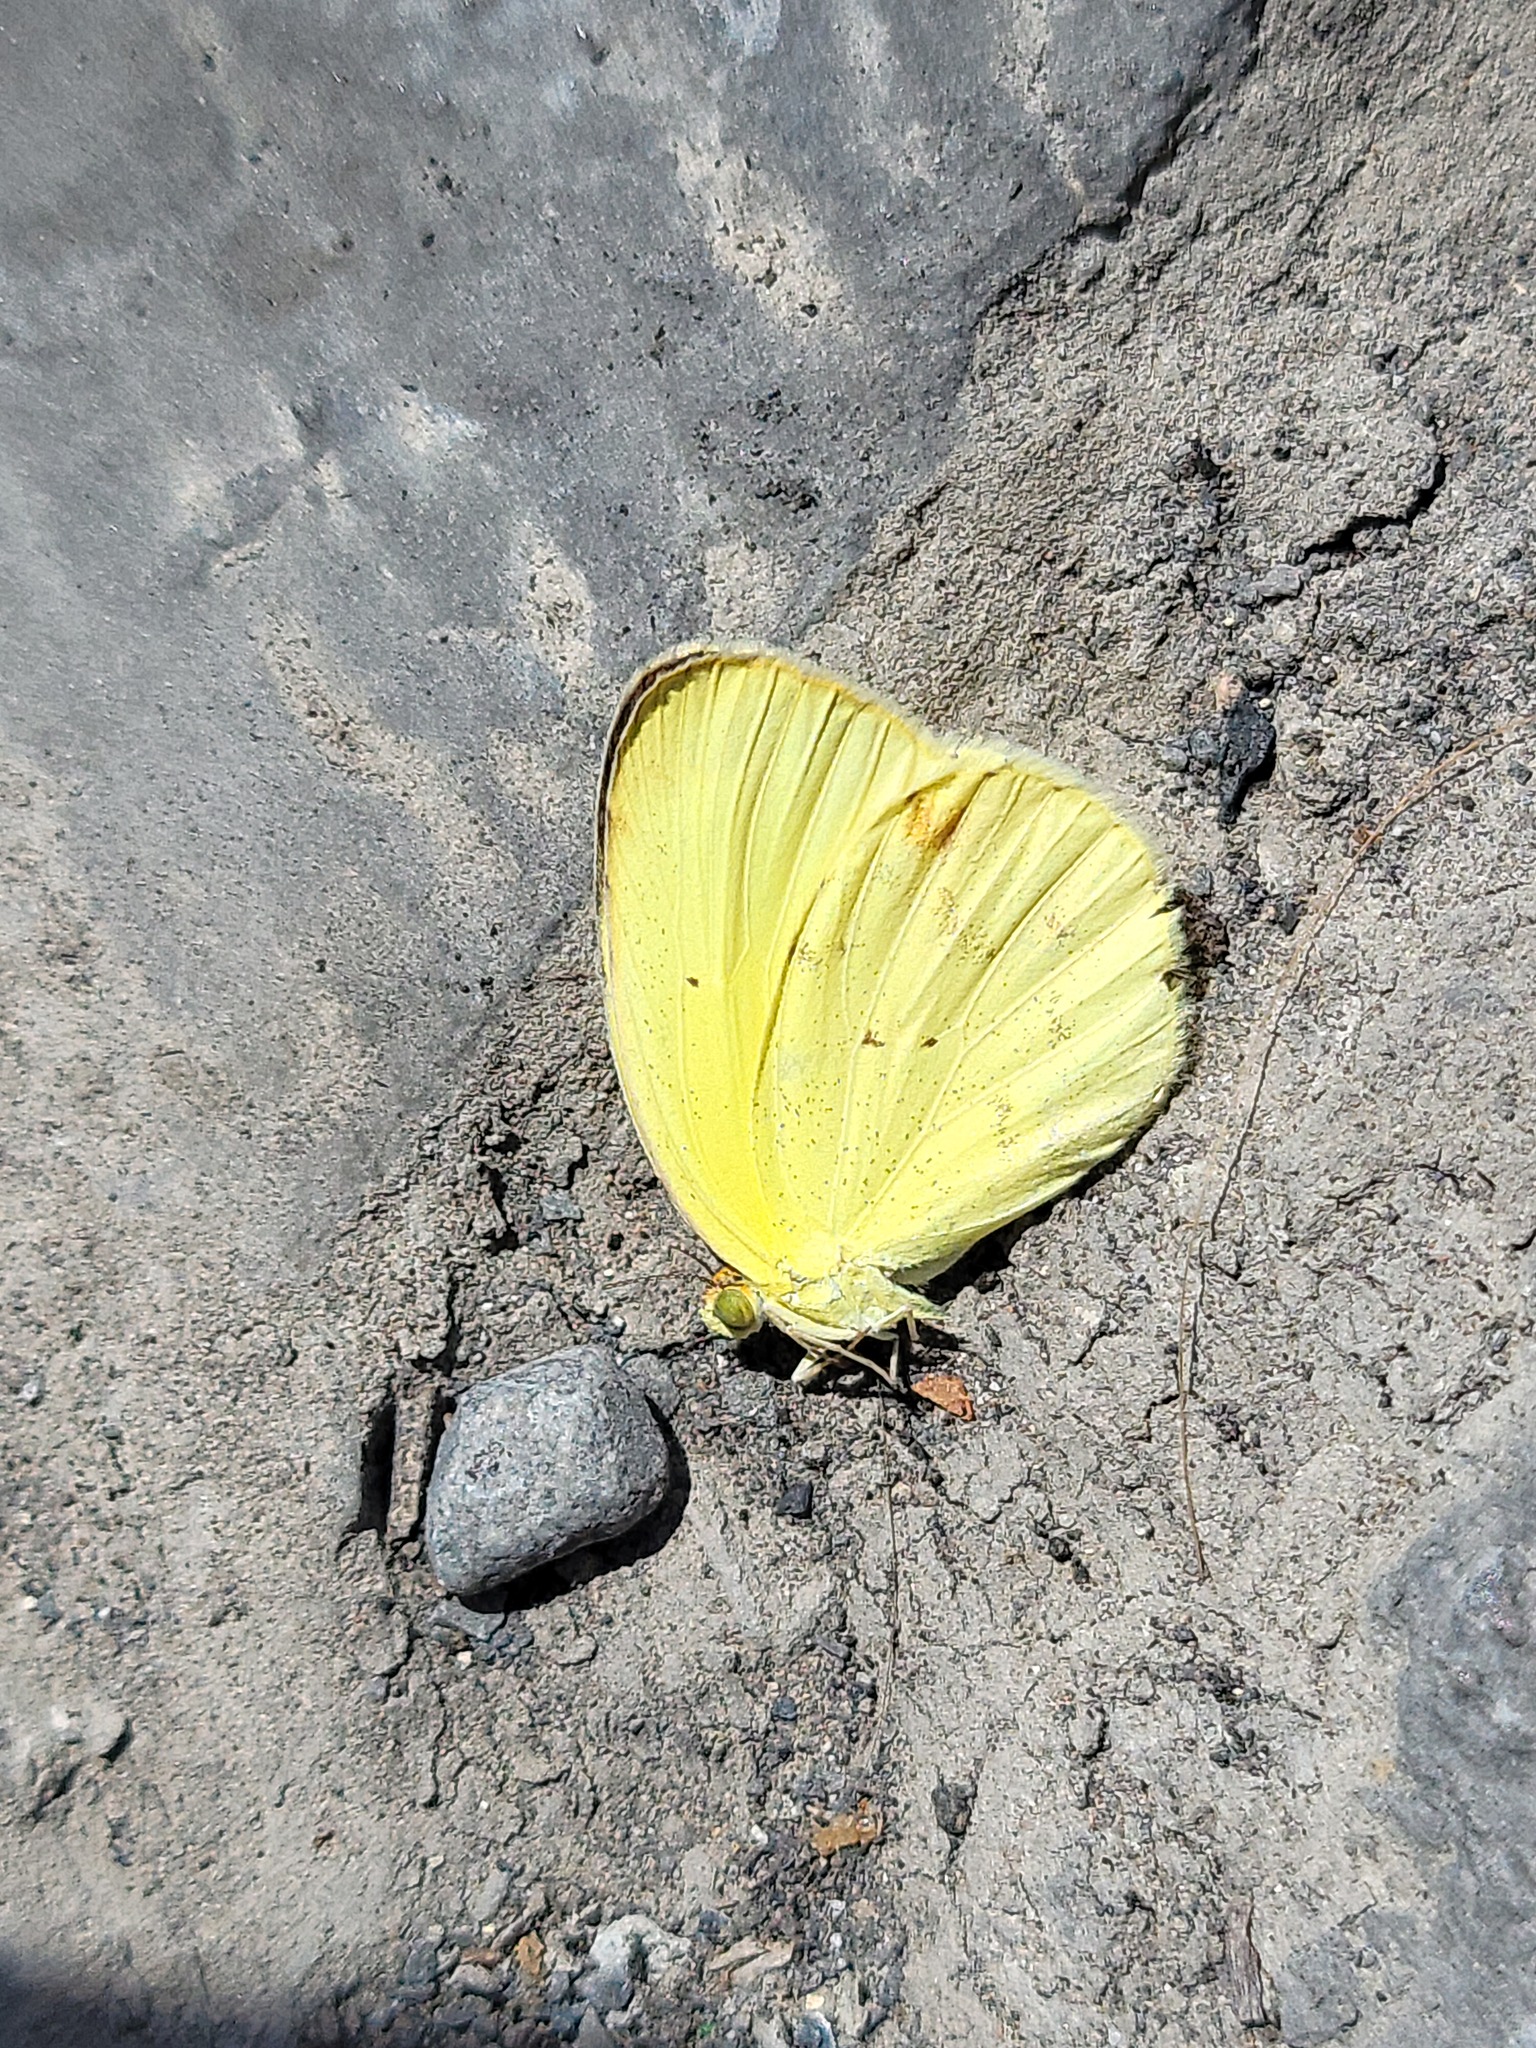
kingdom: Animalia
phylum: Arthropoda
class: Insecta
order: Lepidoptera
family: Pieridae
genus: Pyrisitia
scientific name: Pyrisitia nise
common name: Mimosa yellow
